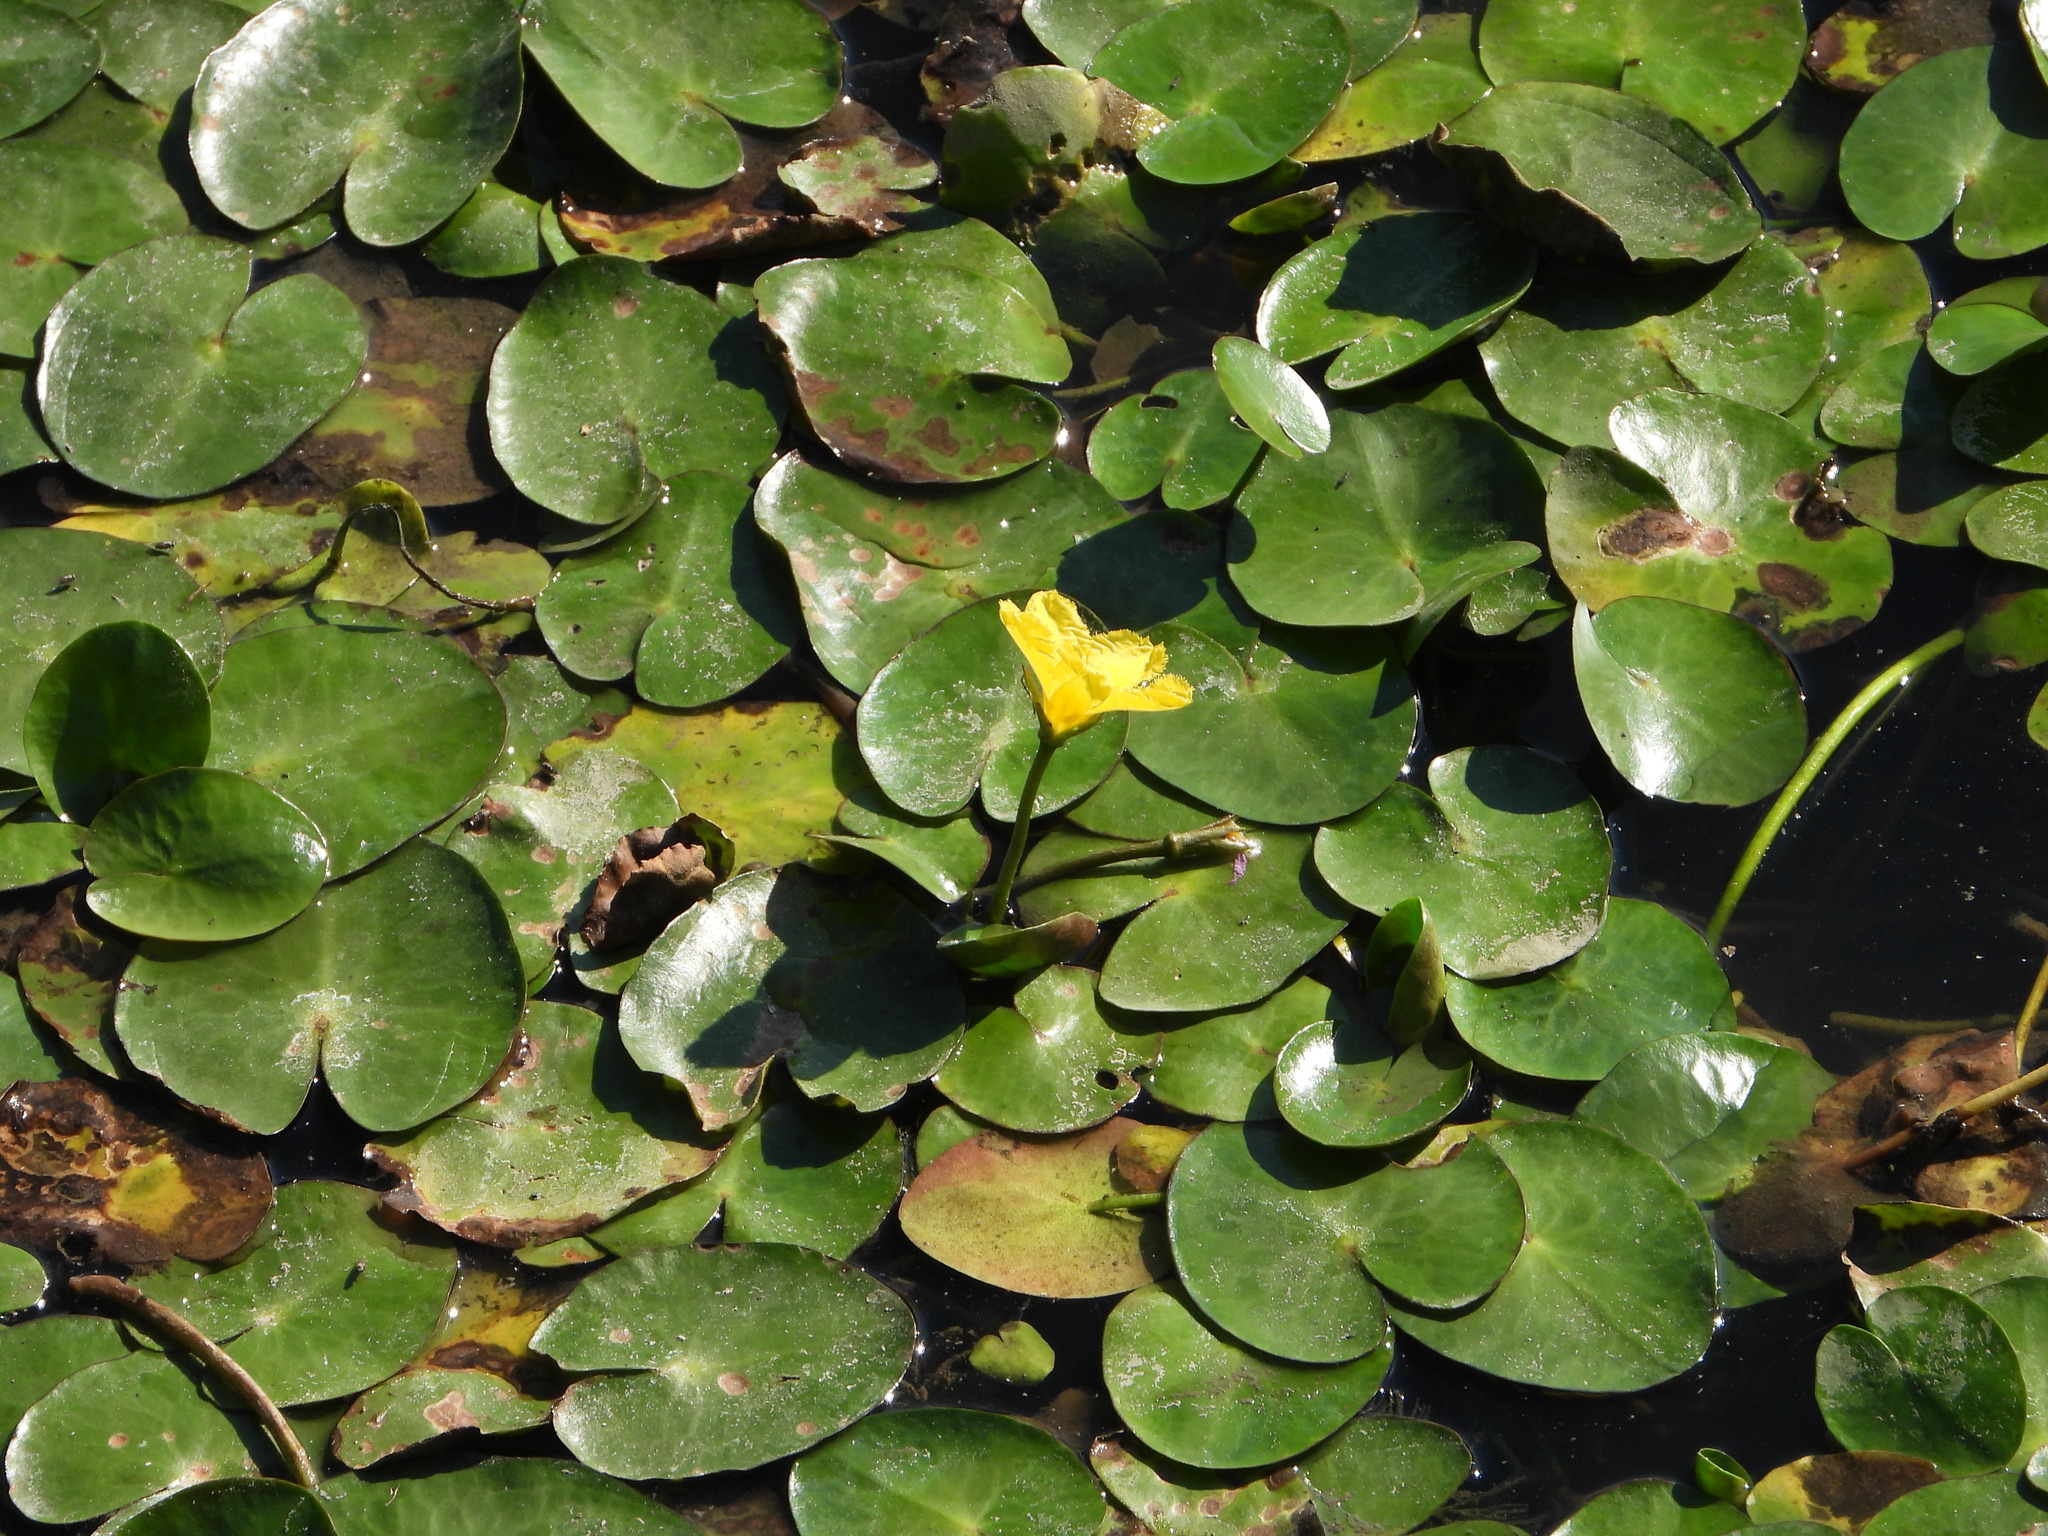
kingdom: Plantae
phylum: Tracheophyta
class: Magnoliopsida
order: Asterales
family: Menyanthaceae
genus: Nymphoides
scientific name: Nymphoides peltata
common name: Fringed water-lily
